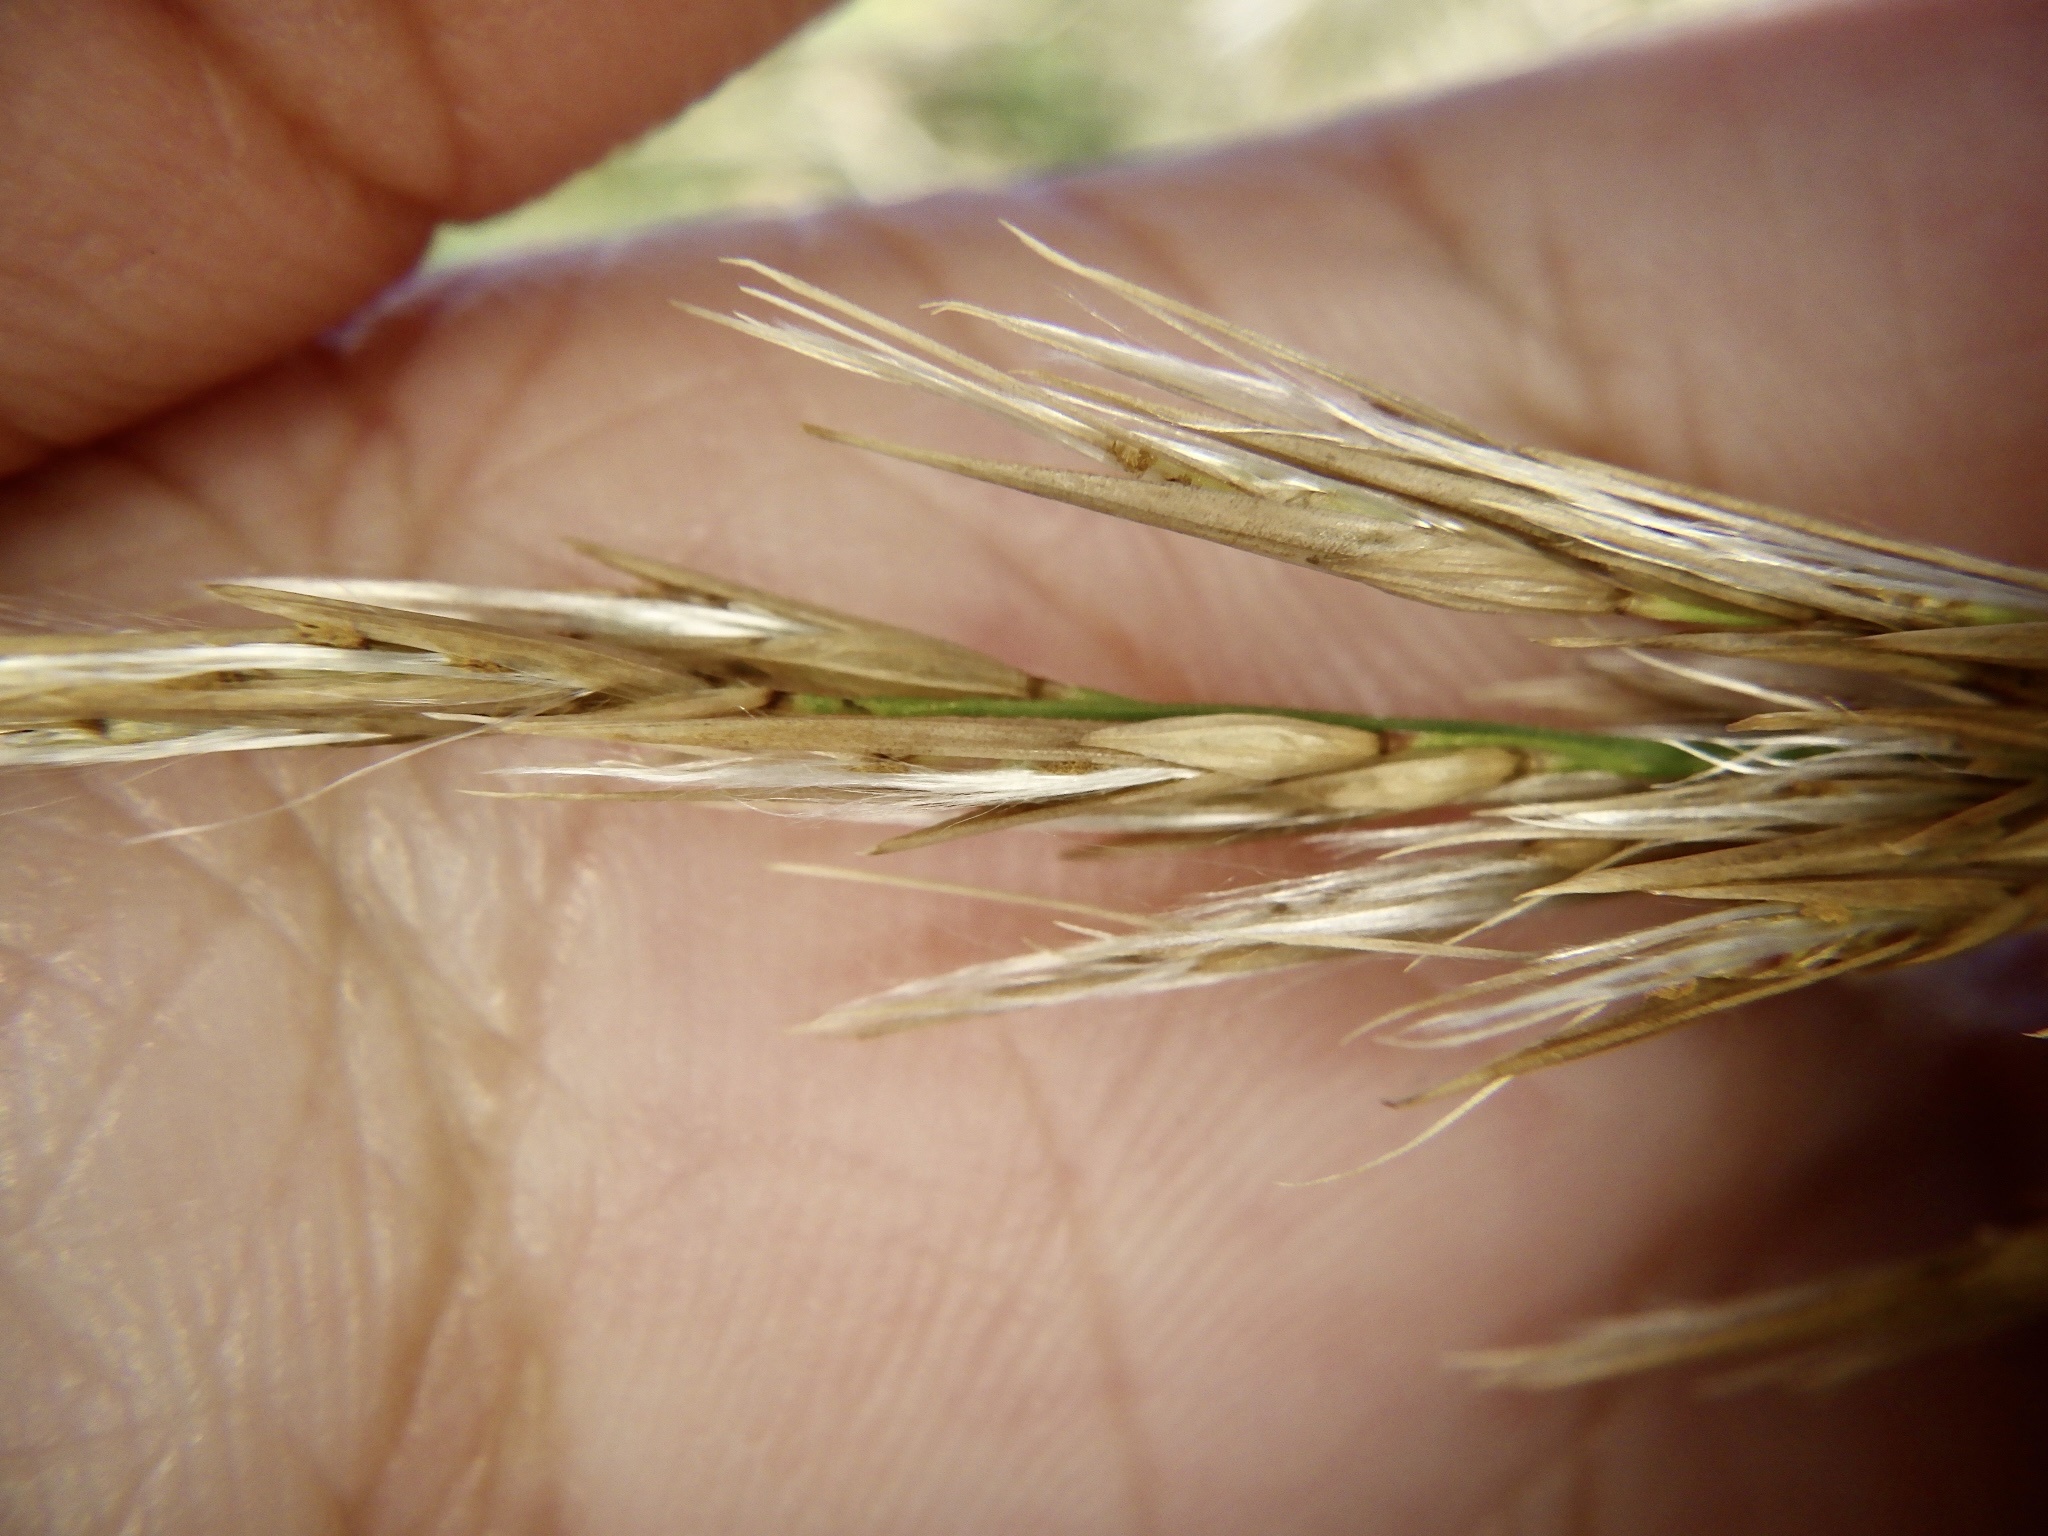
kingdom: Plantae
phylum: Tracheophyta
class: Liliopsida
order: Poales
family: Poaceae
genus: Phragmites
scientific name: Phragmites australis
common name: Common reed
